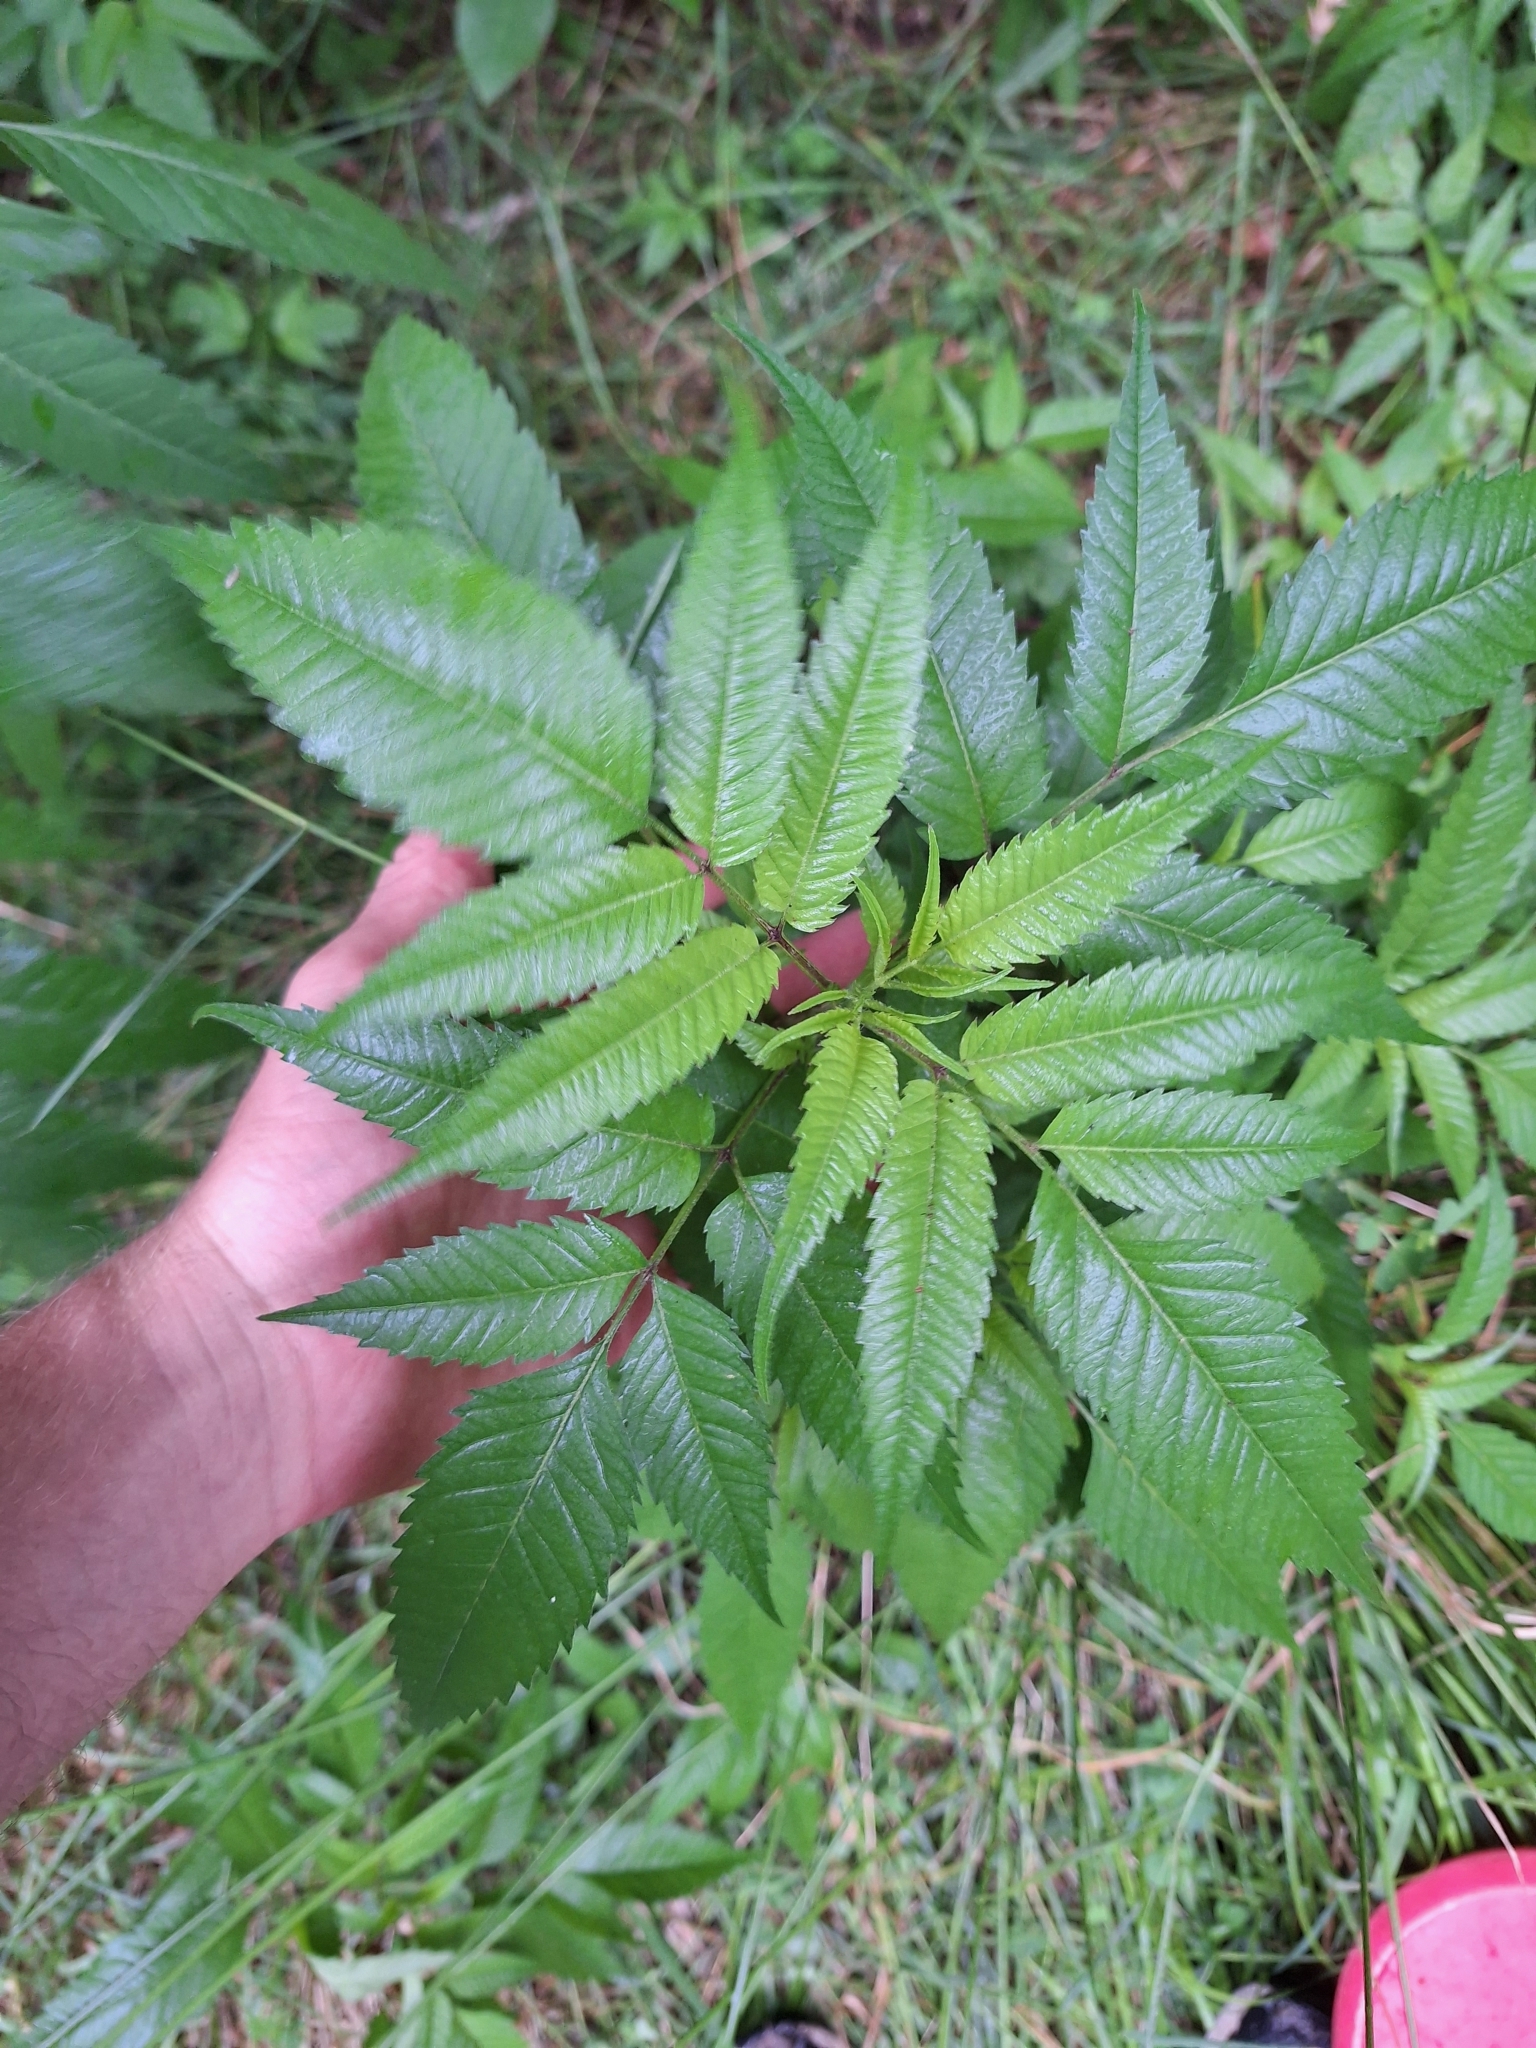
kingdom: Plantae
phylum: Tracheophyta
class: Magnoliopsida
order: Asterales
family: Asteraceae
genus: Bidens
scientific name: Bidens frondosa
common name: Beggarticks
